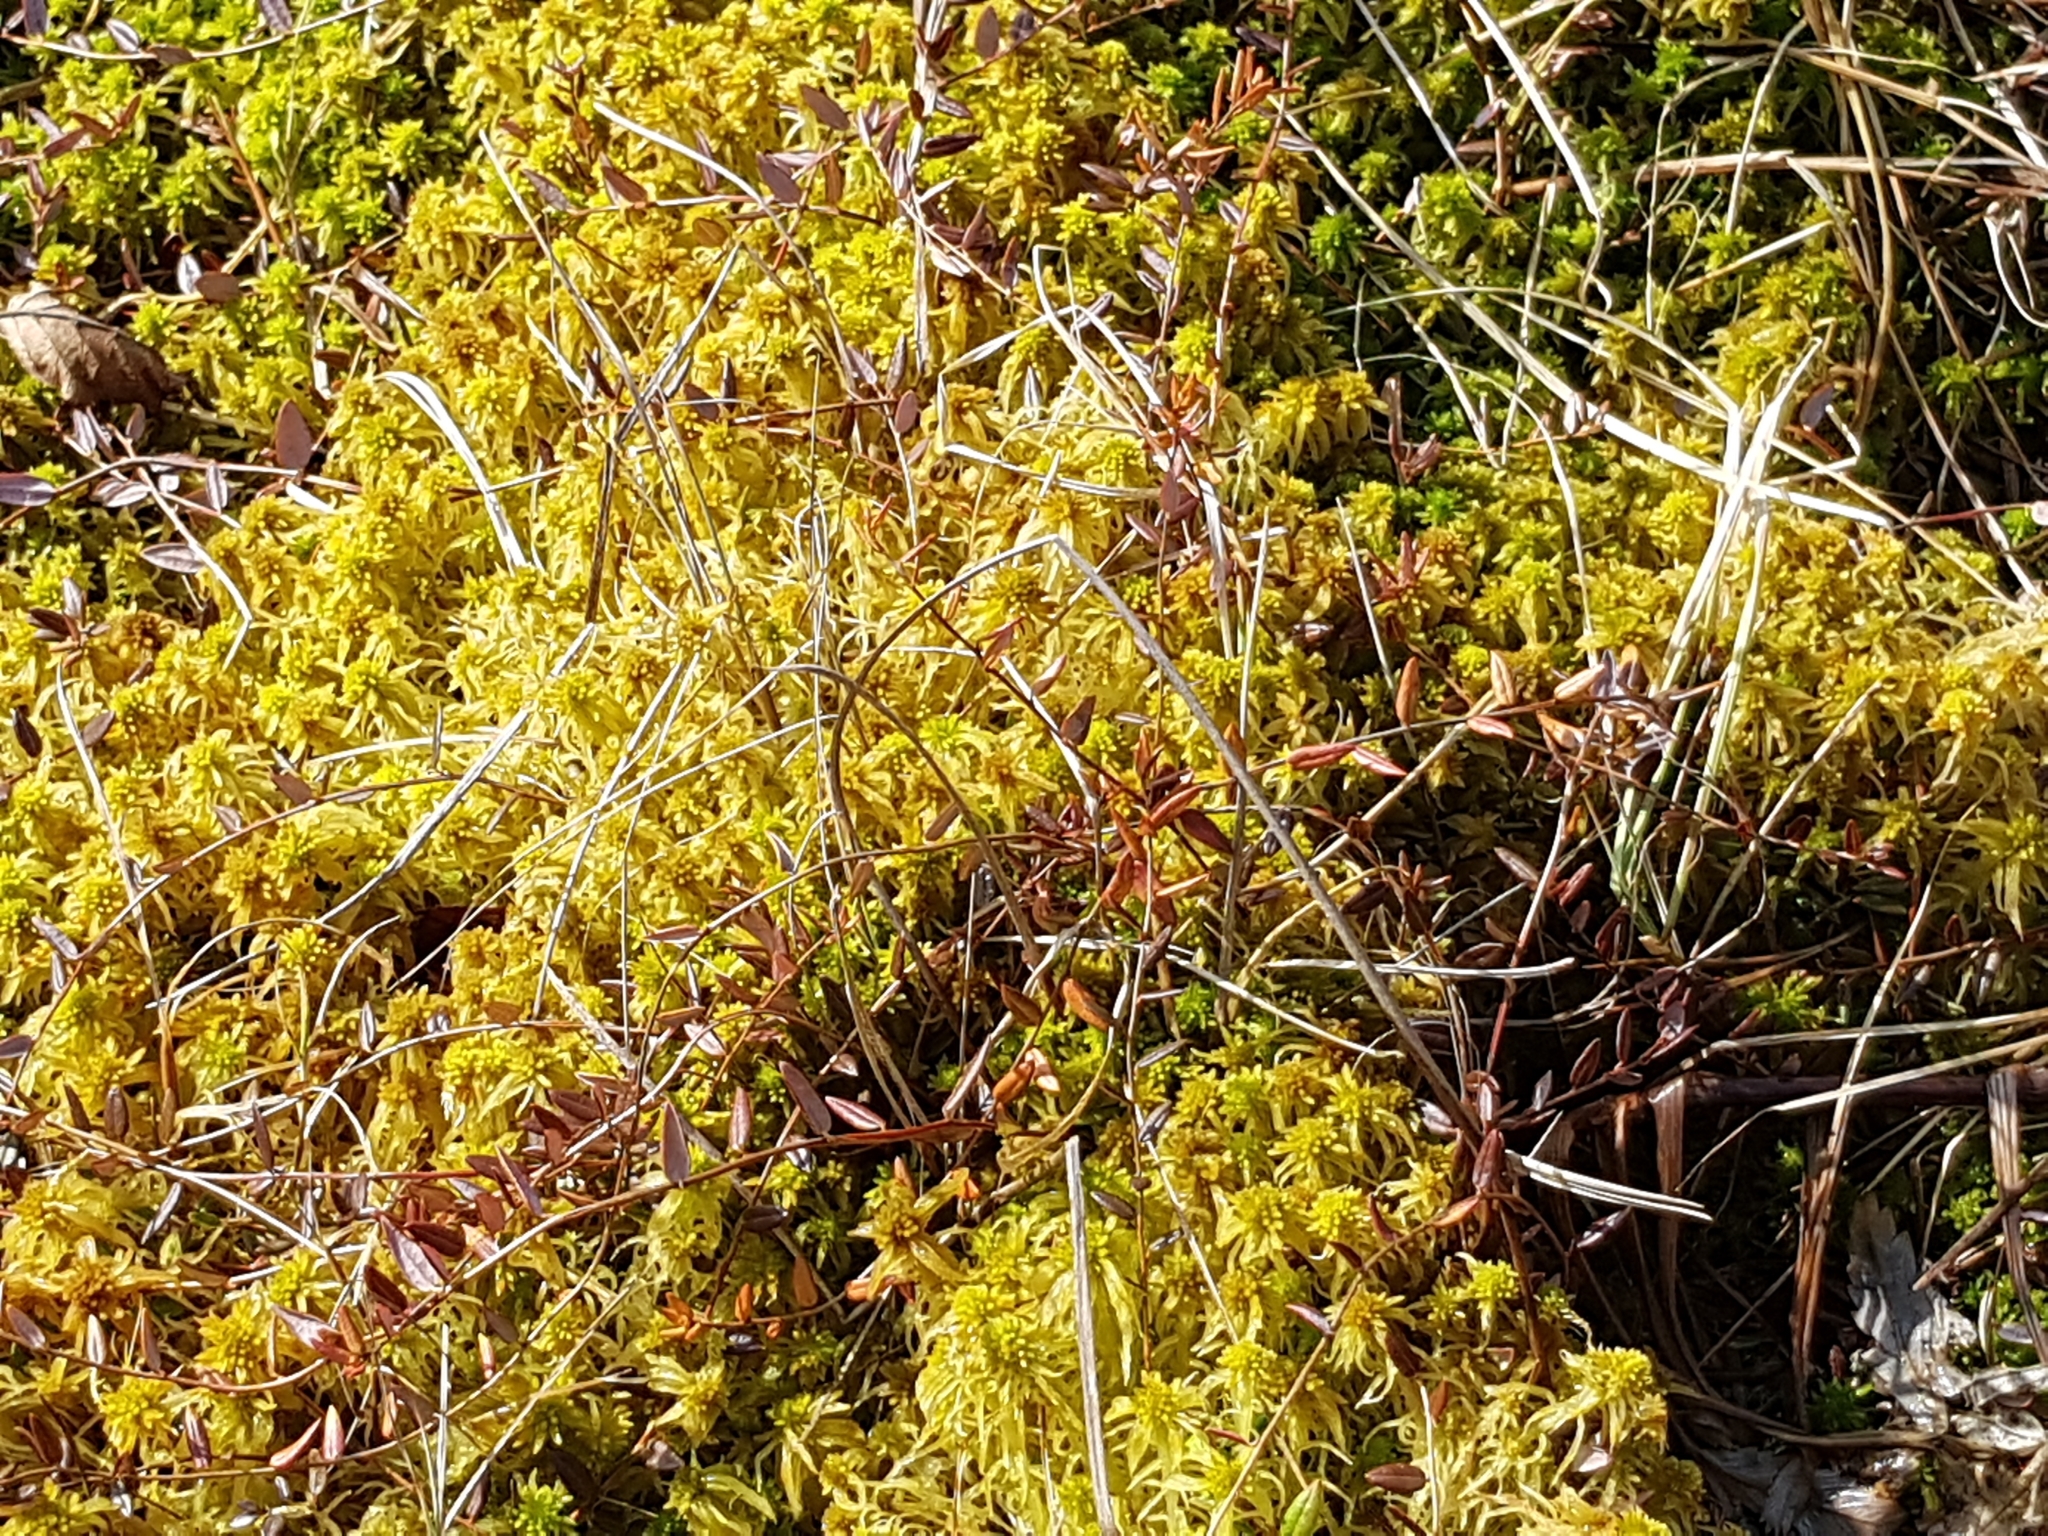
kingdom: Plantae
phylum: Tracheophyta
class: Magnoliopsida
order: Ericales
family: Ericaceae
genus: Vaccinium
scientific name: Vaccinium oxycoccos
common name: Cranberry
